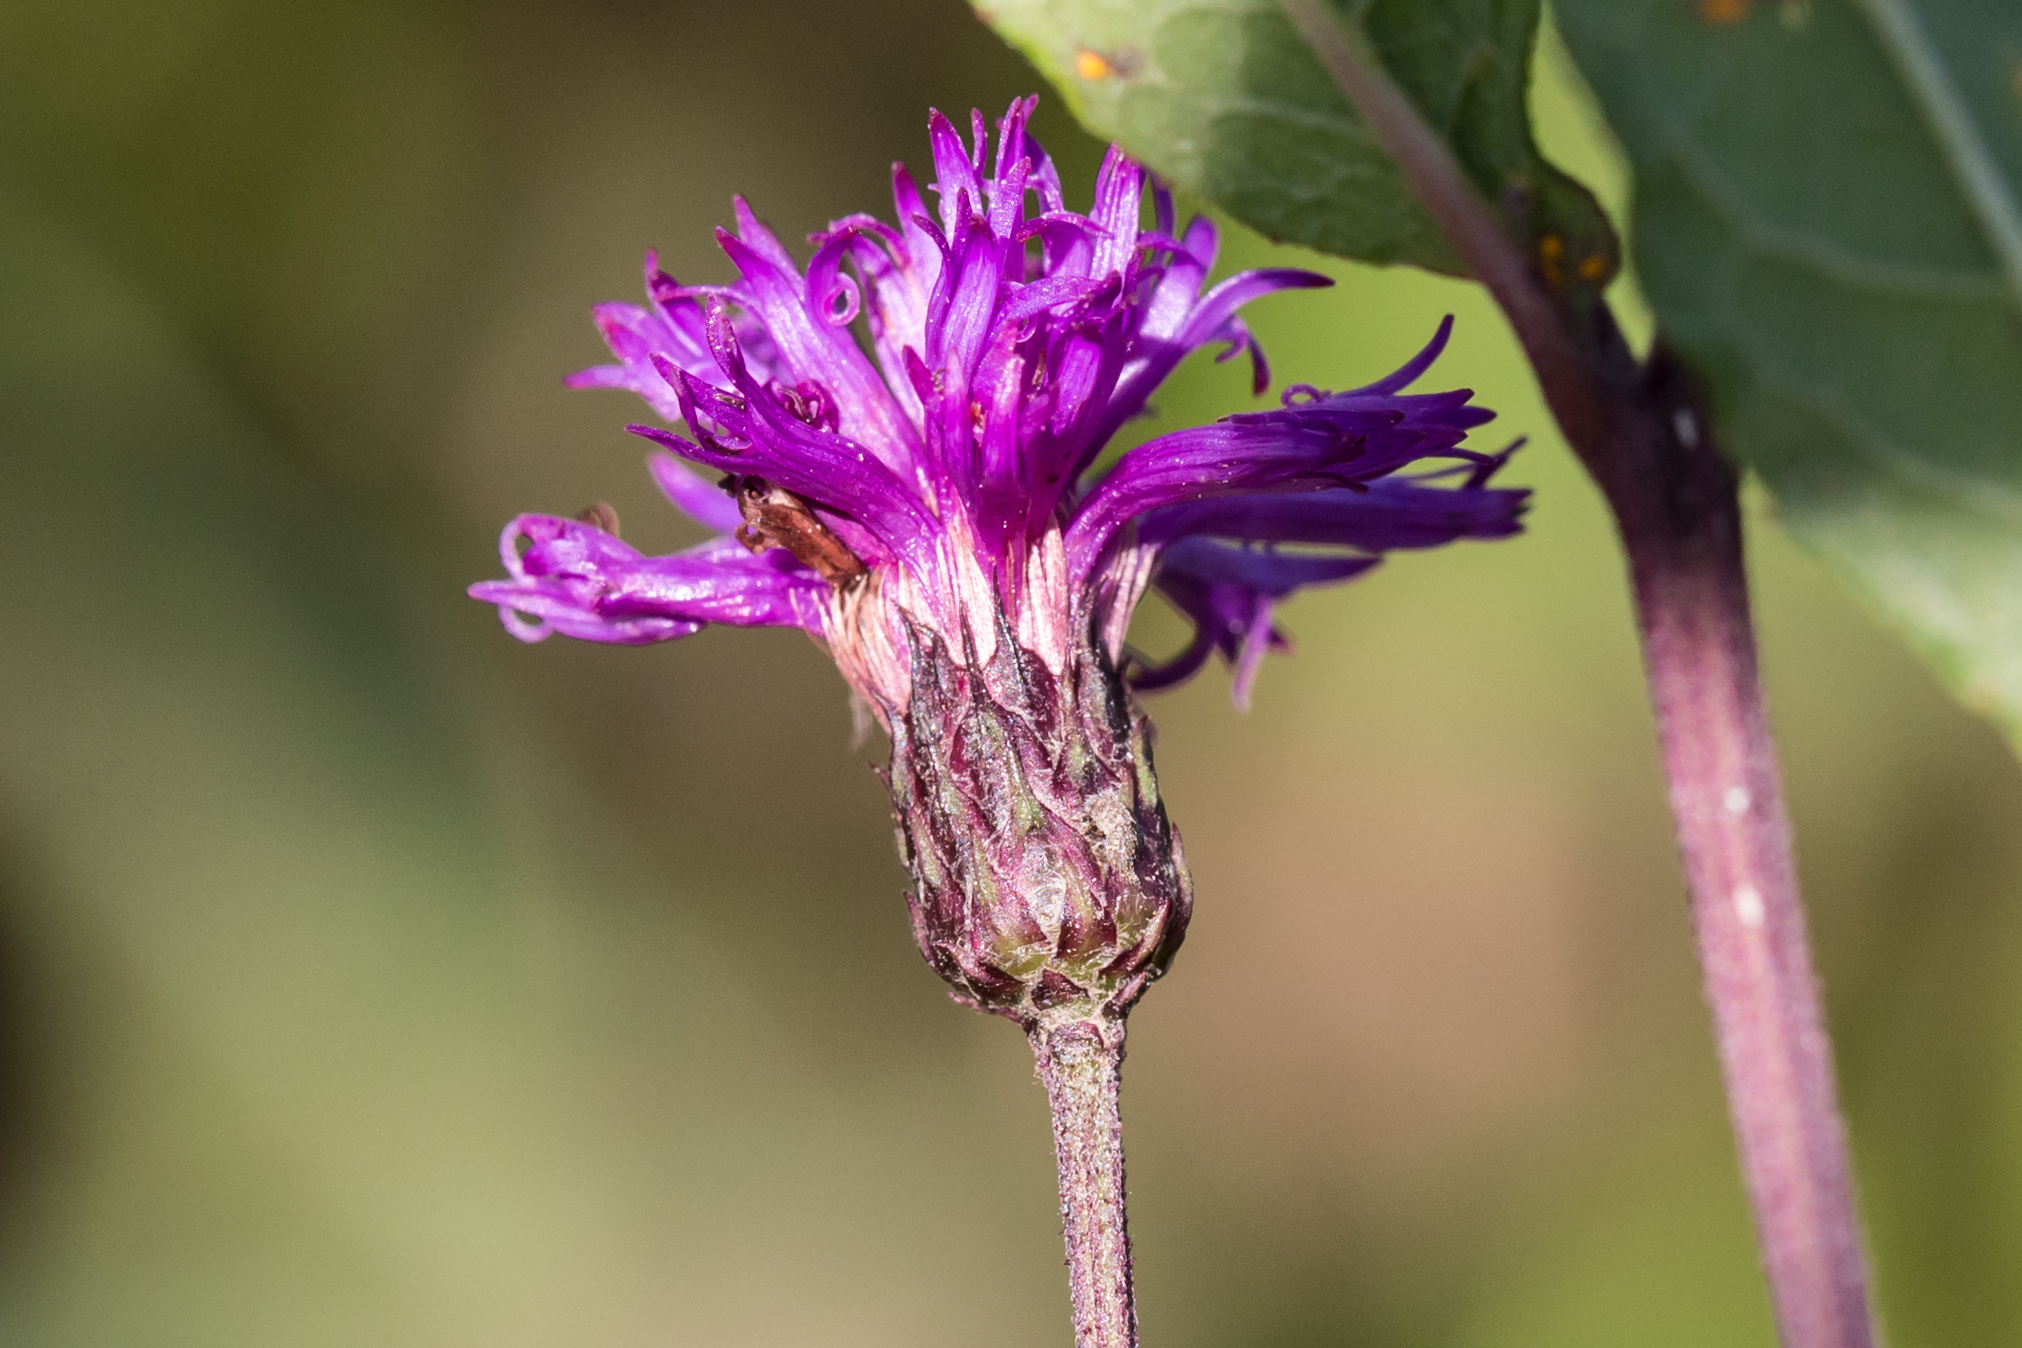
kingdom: Plantae
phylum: Tracheophyta
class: Magnoliopsida
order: Asterales
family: Asteraceae
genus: Vernonia
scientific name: Vernonia noveboracensis
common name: New york ironweed
